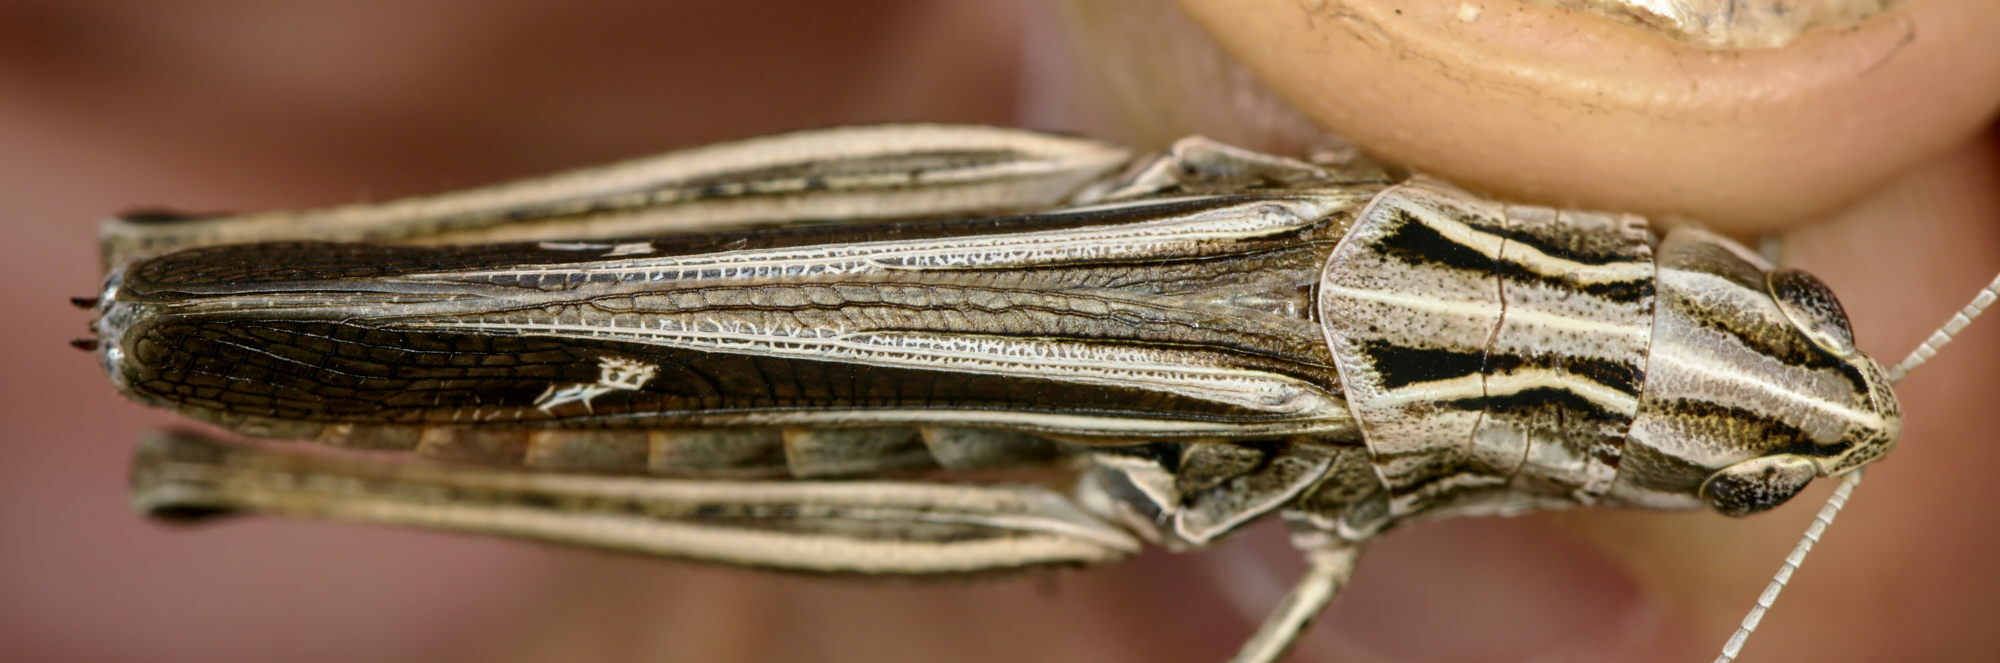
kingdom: Animalia
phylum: Arthropoda
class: Insecta
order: Orthoptera
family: Acrididae
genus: Stenobothrus
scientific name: Stenobothrus lineatus
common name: Stripe-winged grasshopper
